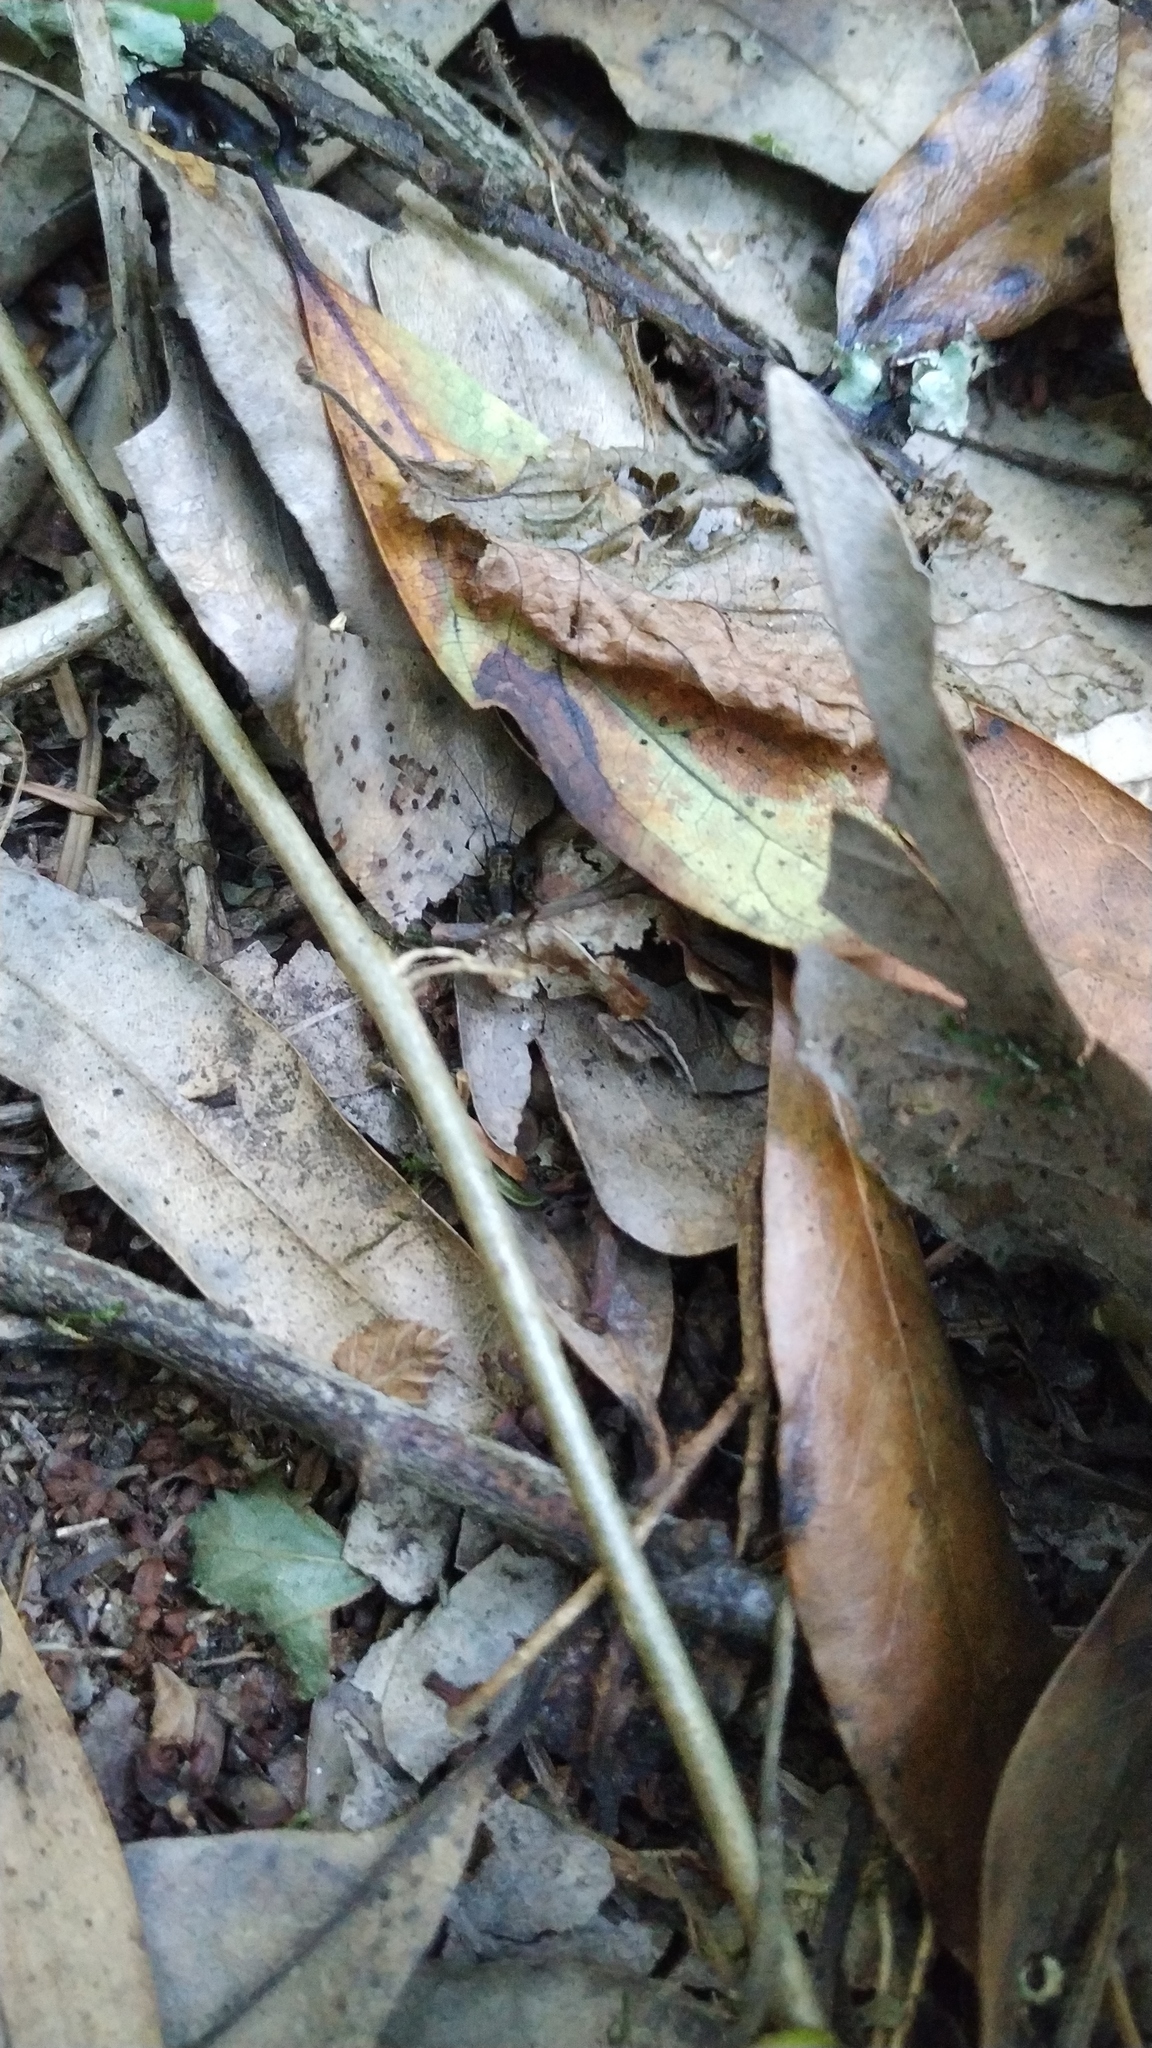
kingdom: Animalia
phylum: Arthropoda
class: Insecta
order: Orthoptera
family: Trigonidiidae
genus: Nemobius
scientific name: Nemobius sylvestris
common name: Wood-cricket
